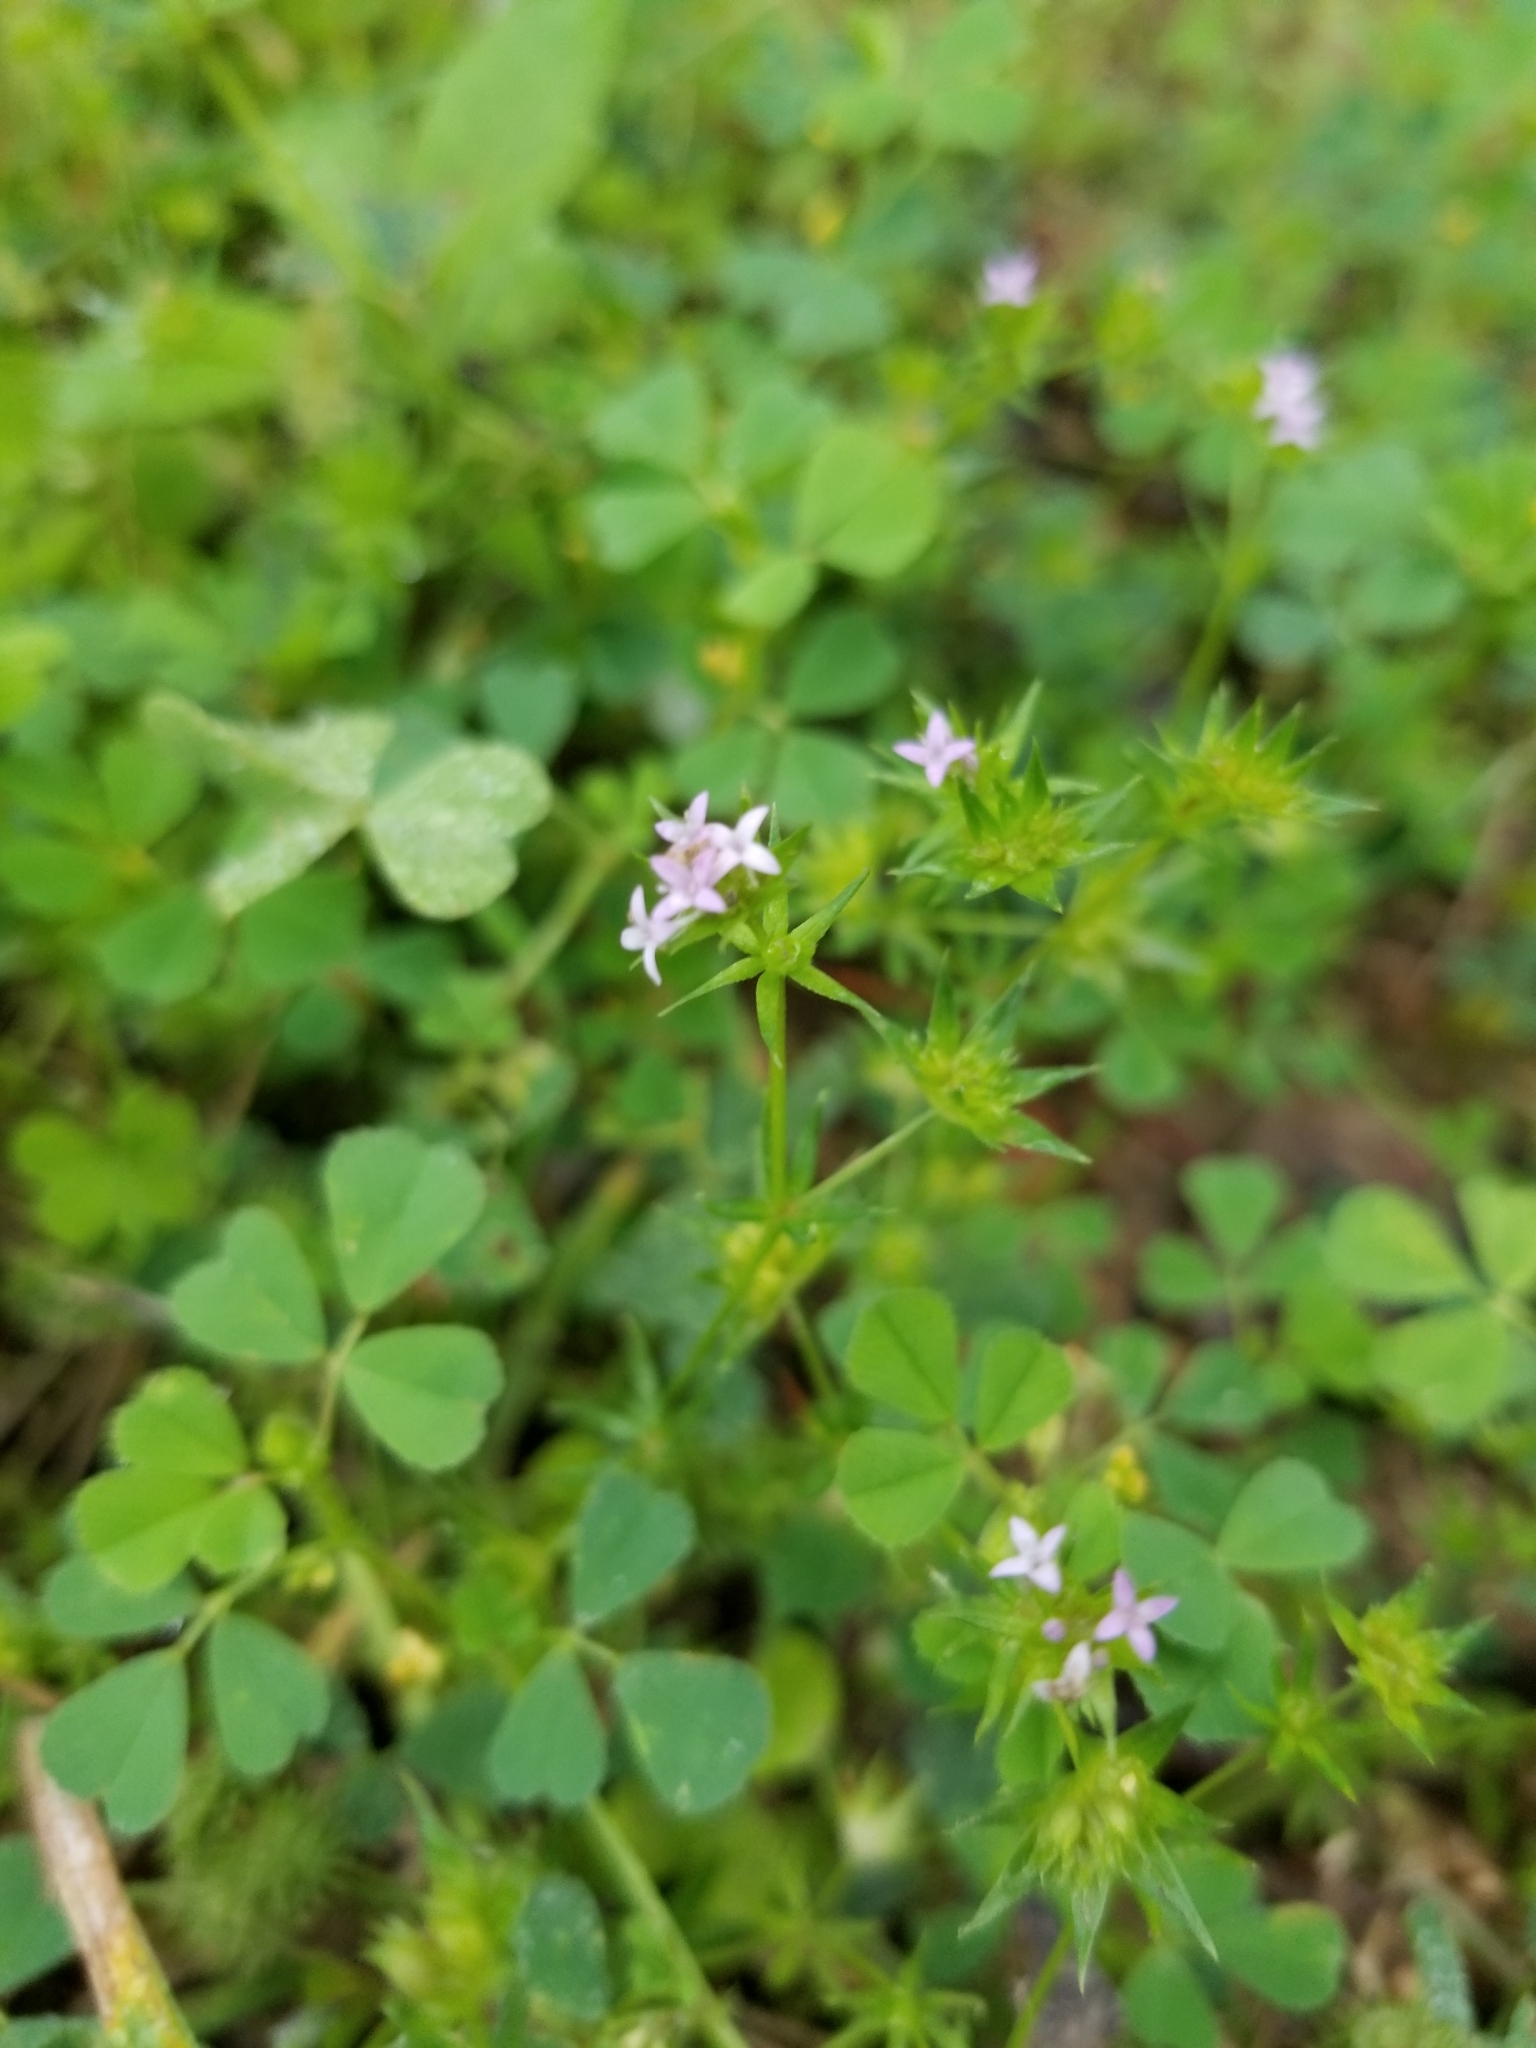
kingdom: Plantae
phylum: Tracheophyta
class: Magnoliopsida
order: Gentianales
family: Rubiaceae
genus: Sherardia
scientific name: Sherardia arvensis
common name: Field madder
